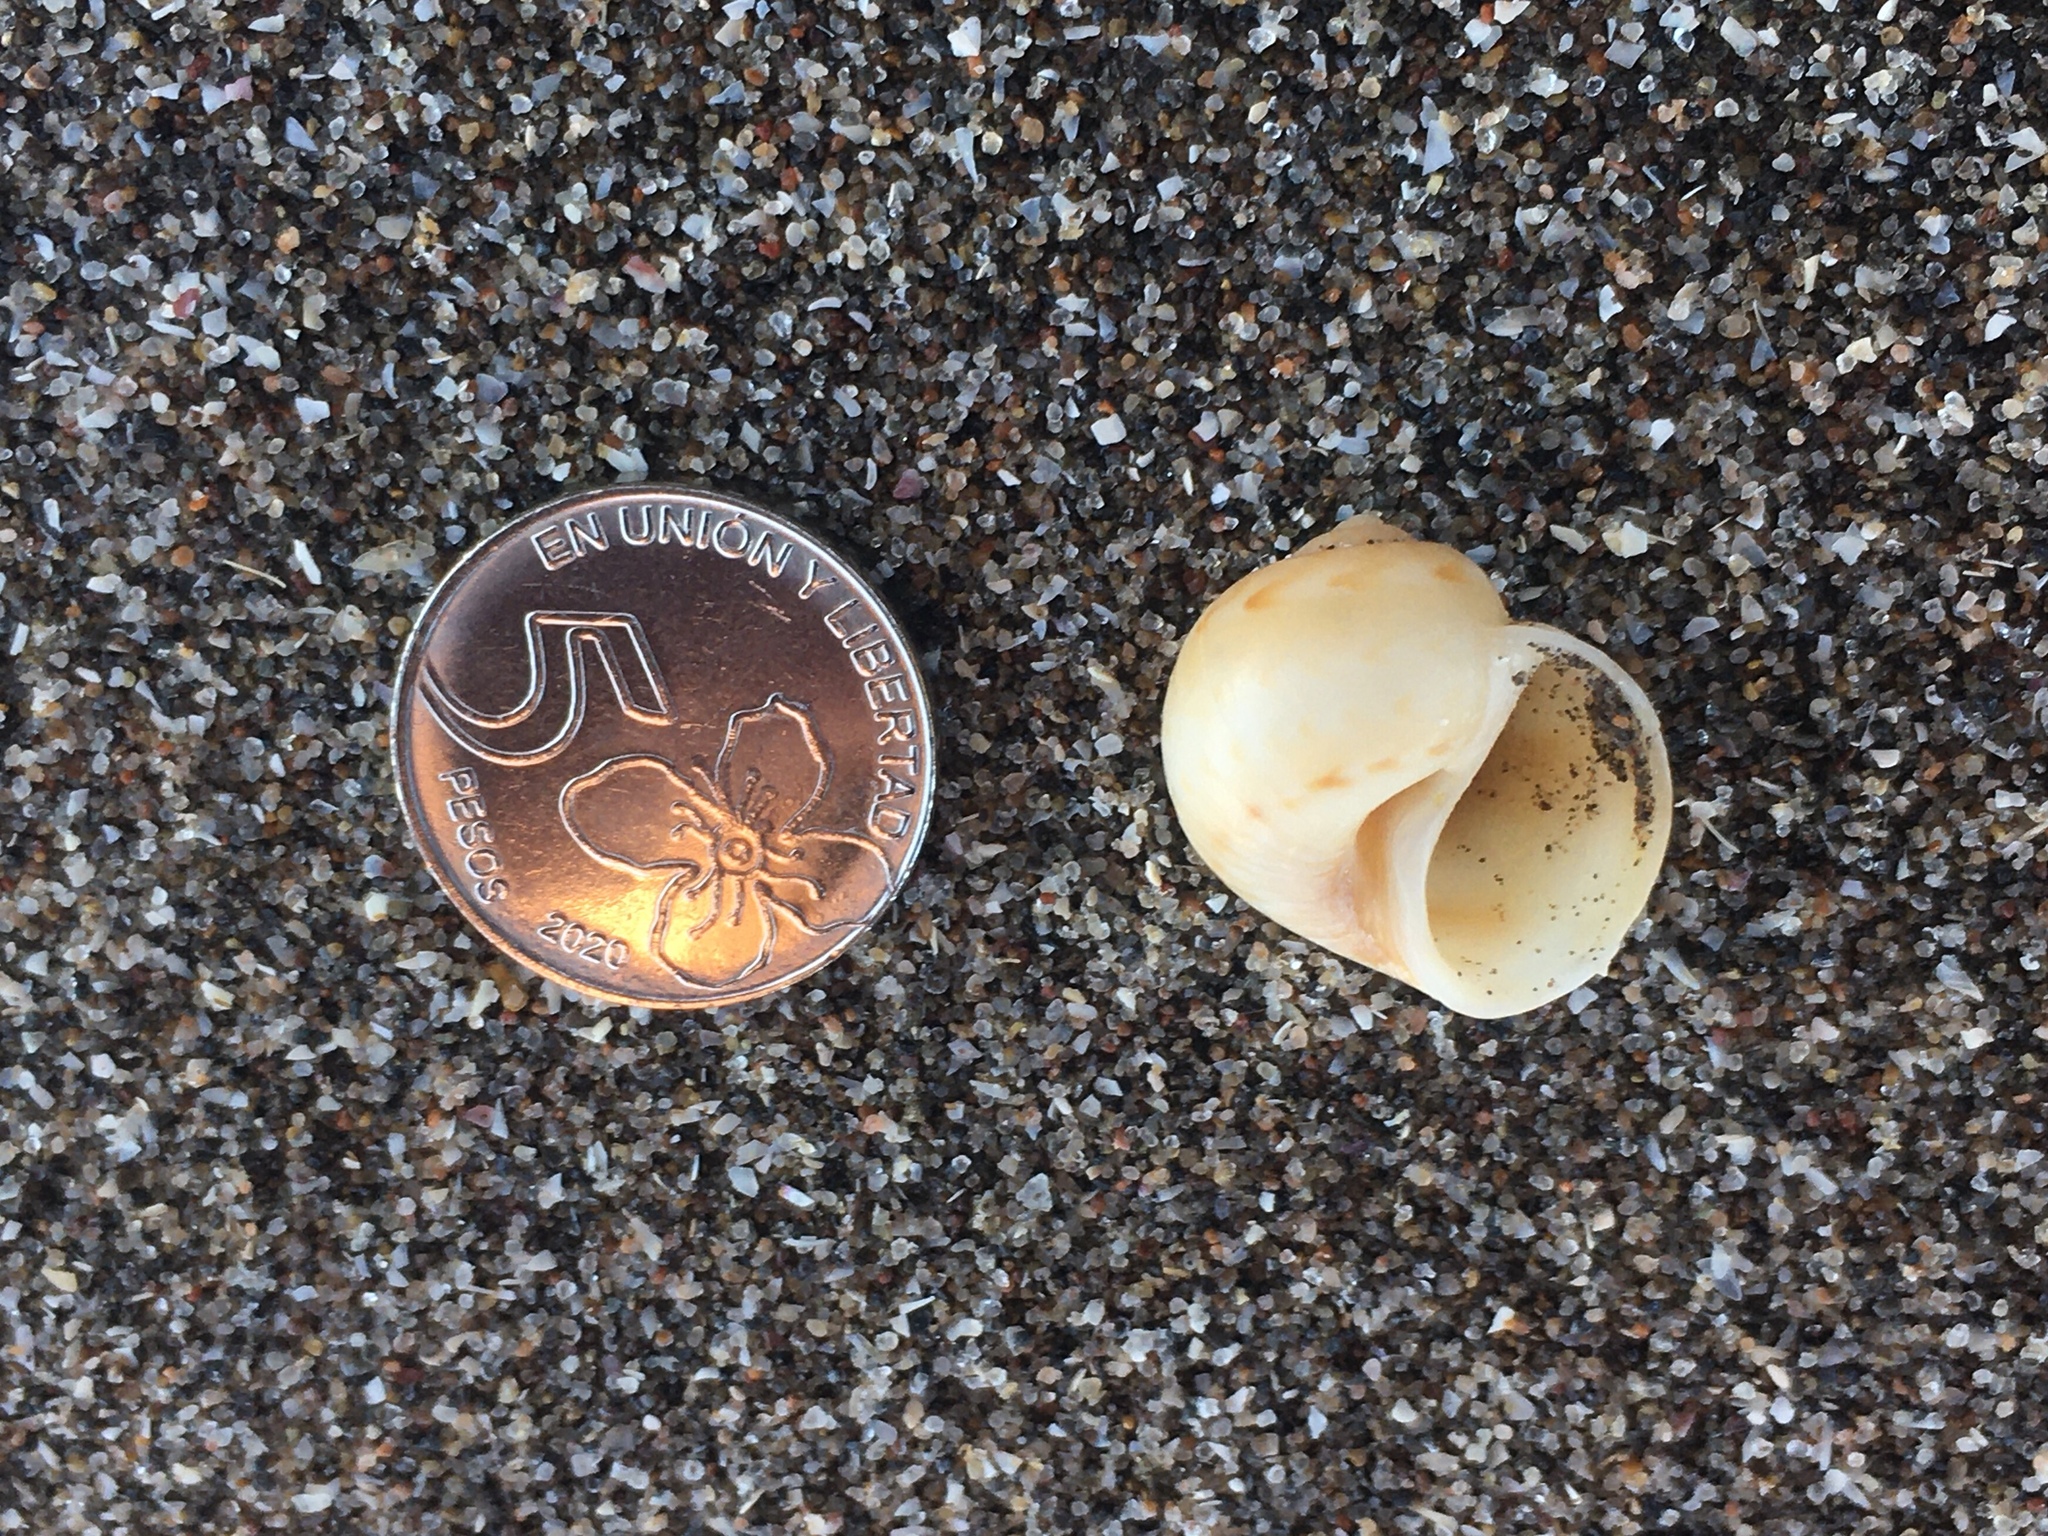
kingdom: Animalia
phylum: Mollusca
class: Gastropoda
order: Littorinimorpha
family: Naticidae
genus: Notocochlis
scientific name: Notocochlis isabelleana
